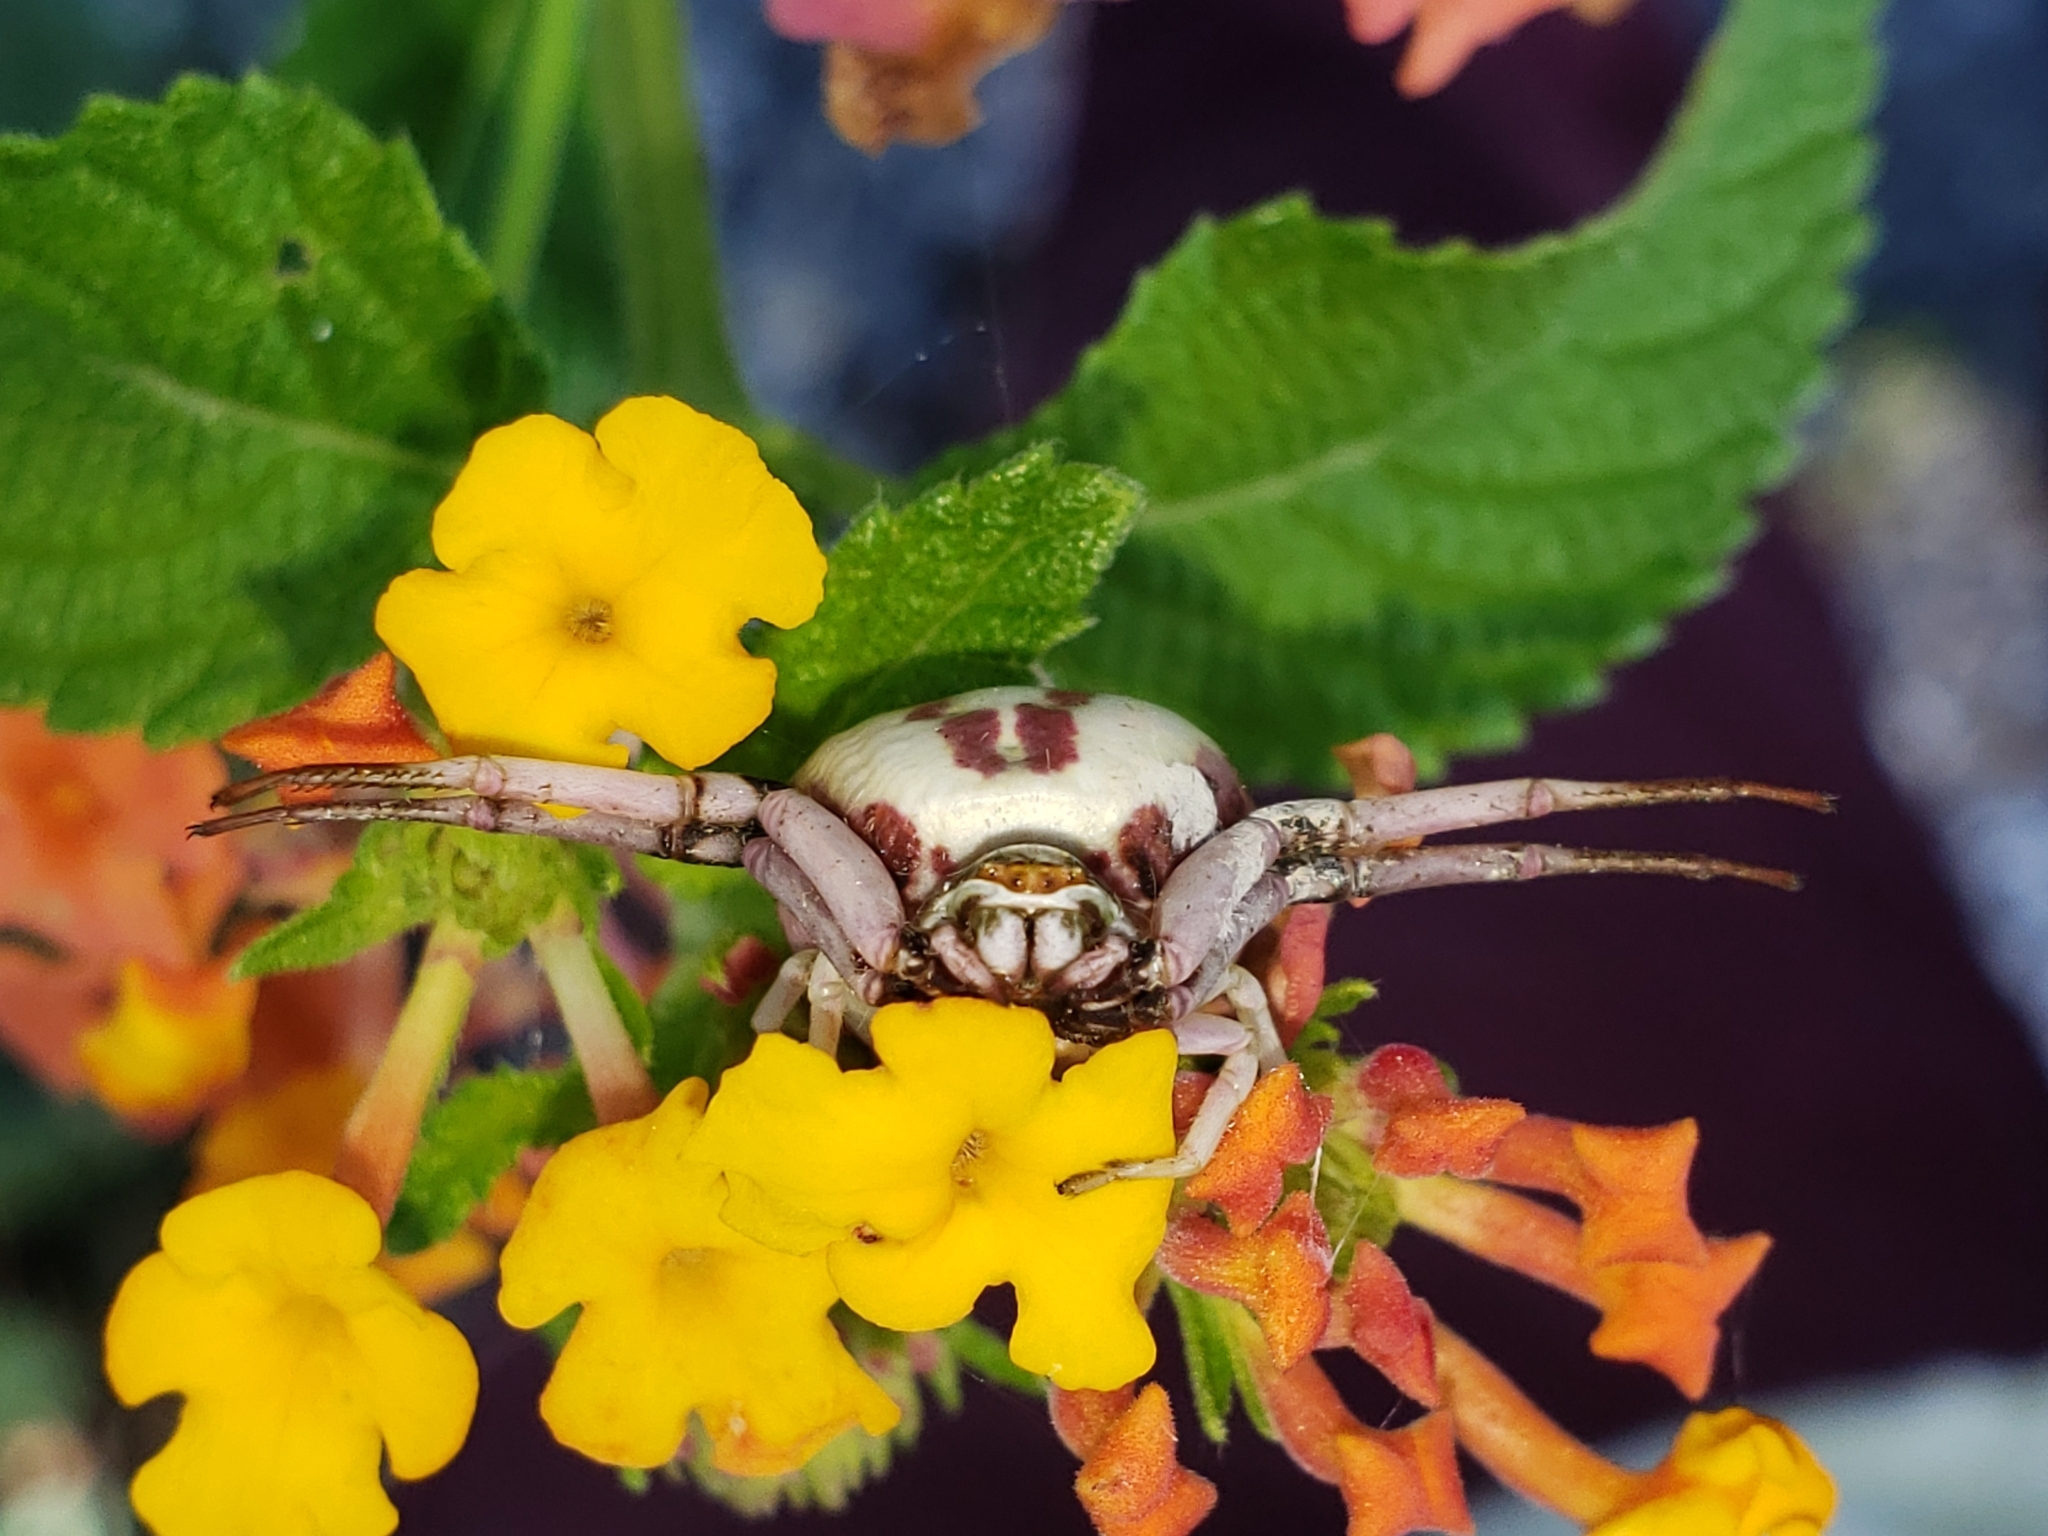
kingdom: Animalia
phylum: Arthropoda
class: Arachnida
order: Araneae
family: Thomisidae
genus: Misumenoides
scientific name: Misumenoides formosipes
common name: White-banded crab spider
